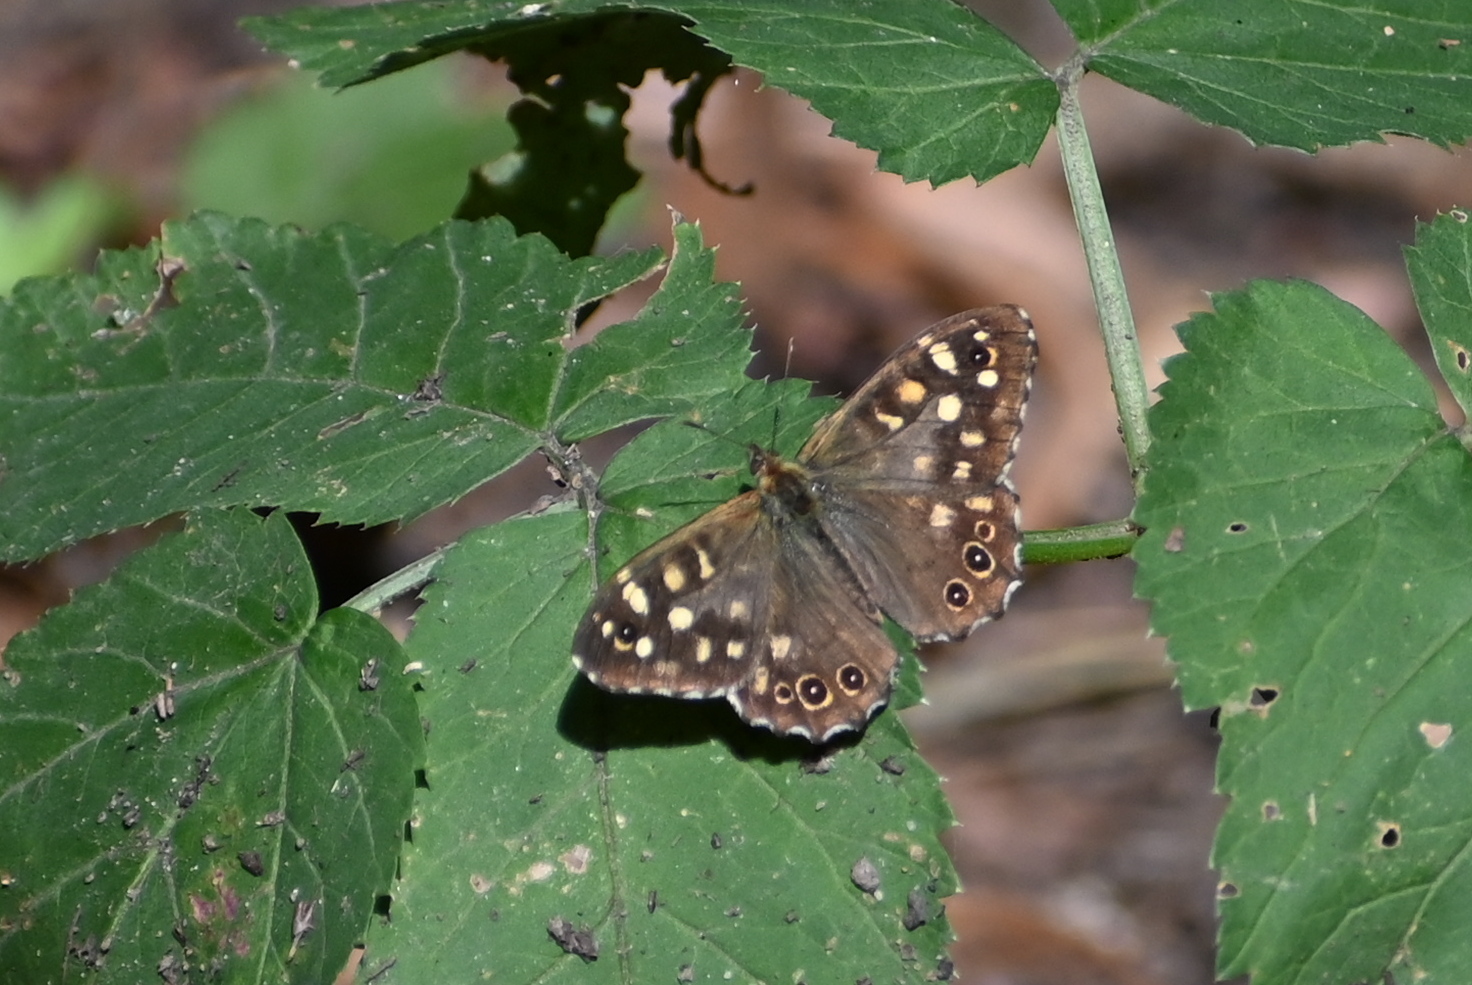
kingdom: Animalia
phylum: Arthropoda
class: Insecta
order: Lepidoptera
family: Nymphalidae
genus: Pararge
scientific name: Pararge aegeria
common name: Speckled wood
